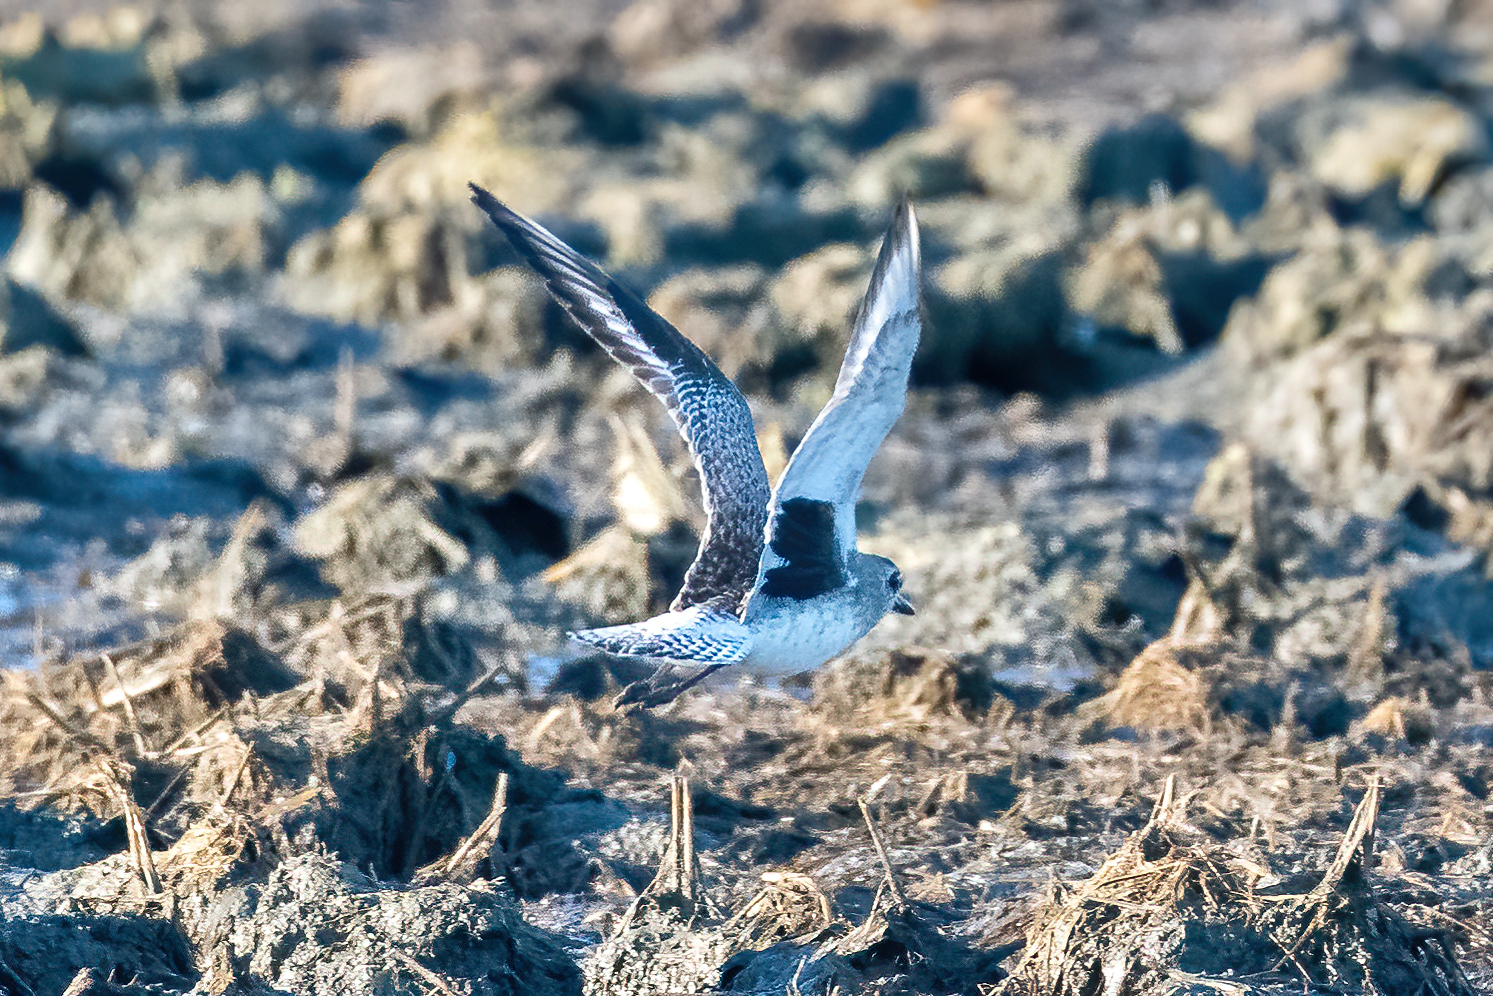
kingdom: Animalia
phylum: Chordata
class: Aves
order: Charadriiformes
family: Charadriidae
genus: Pluvialis
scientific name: Pluvialis squatarola
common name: Grey plover
